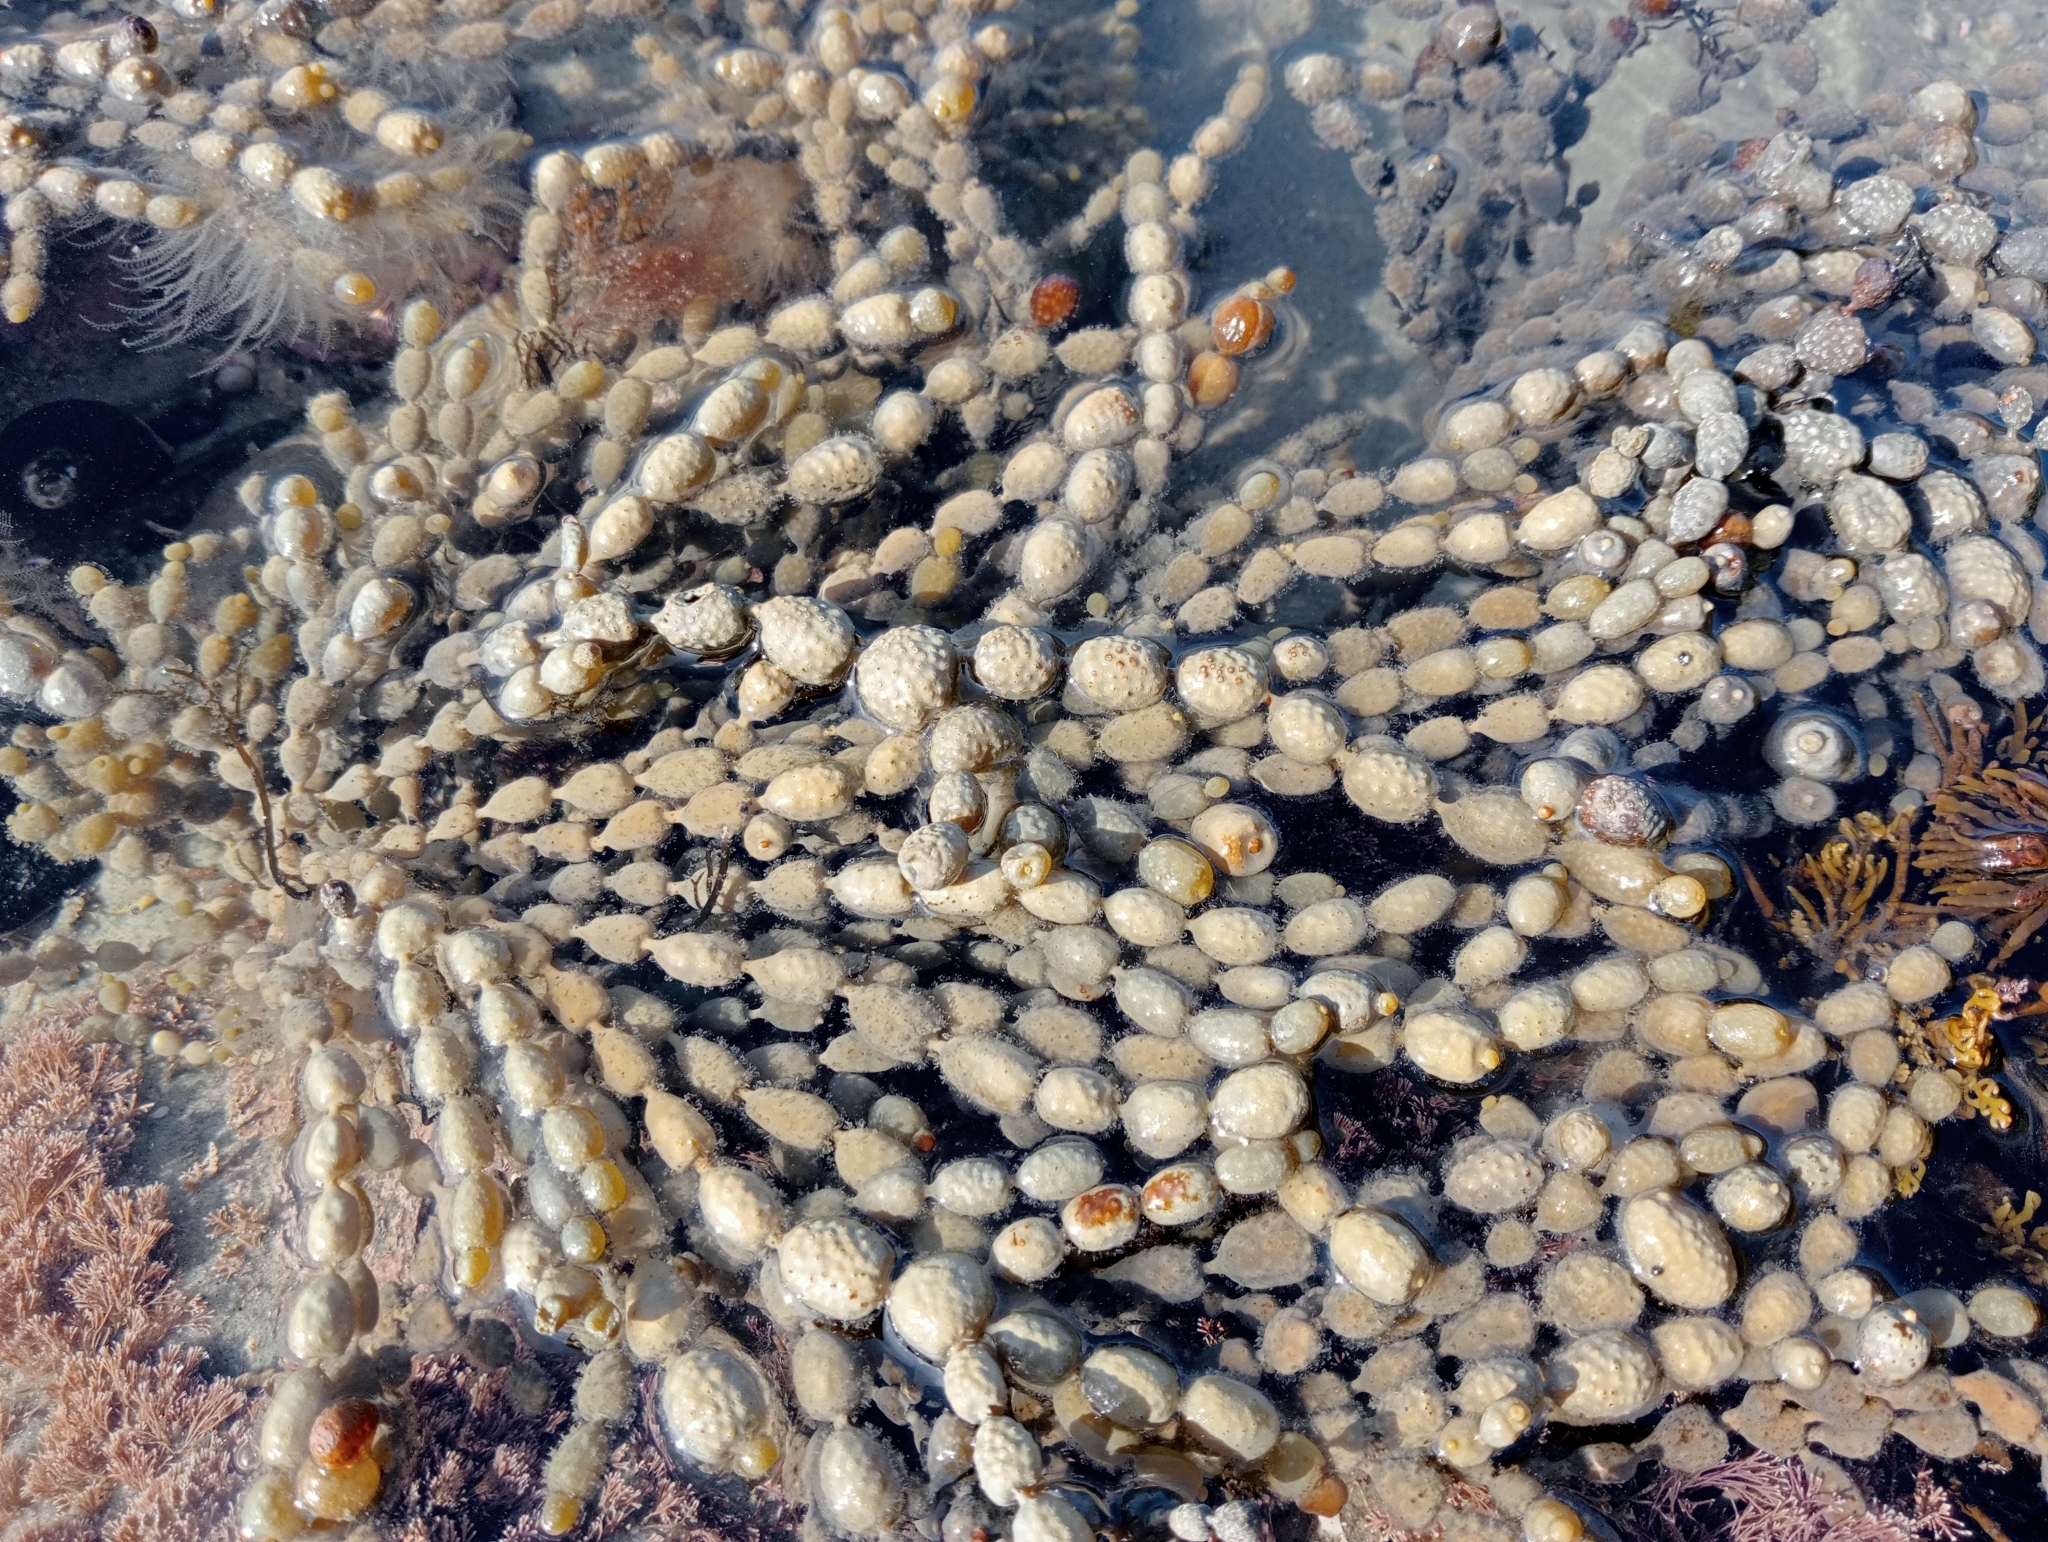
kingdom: Chromista
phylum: Ochrophyta
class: Phaeophyceae
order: Fucales
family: Hormosiraceae
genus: Hormosira
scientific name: Hormosira banksii
